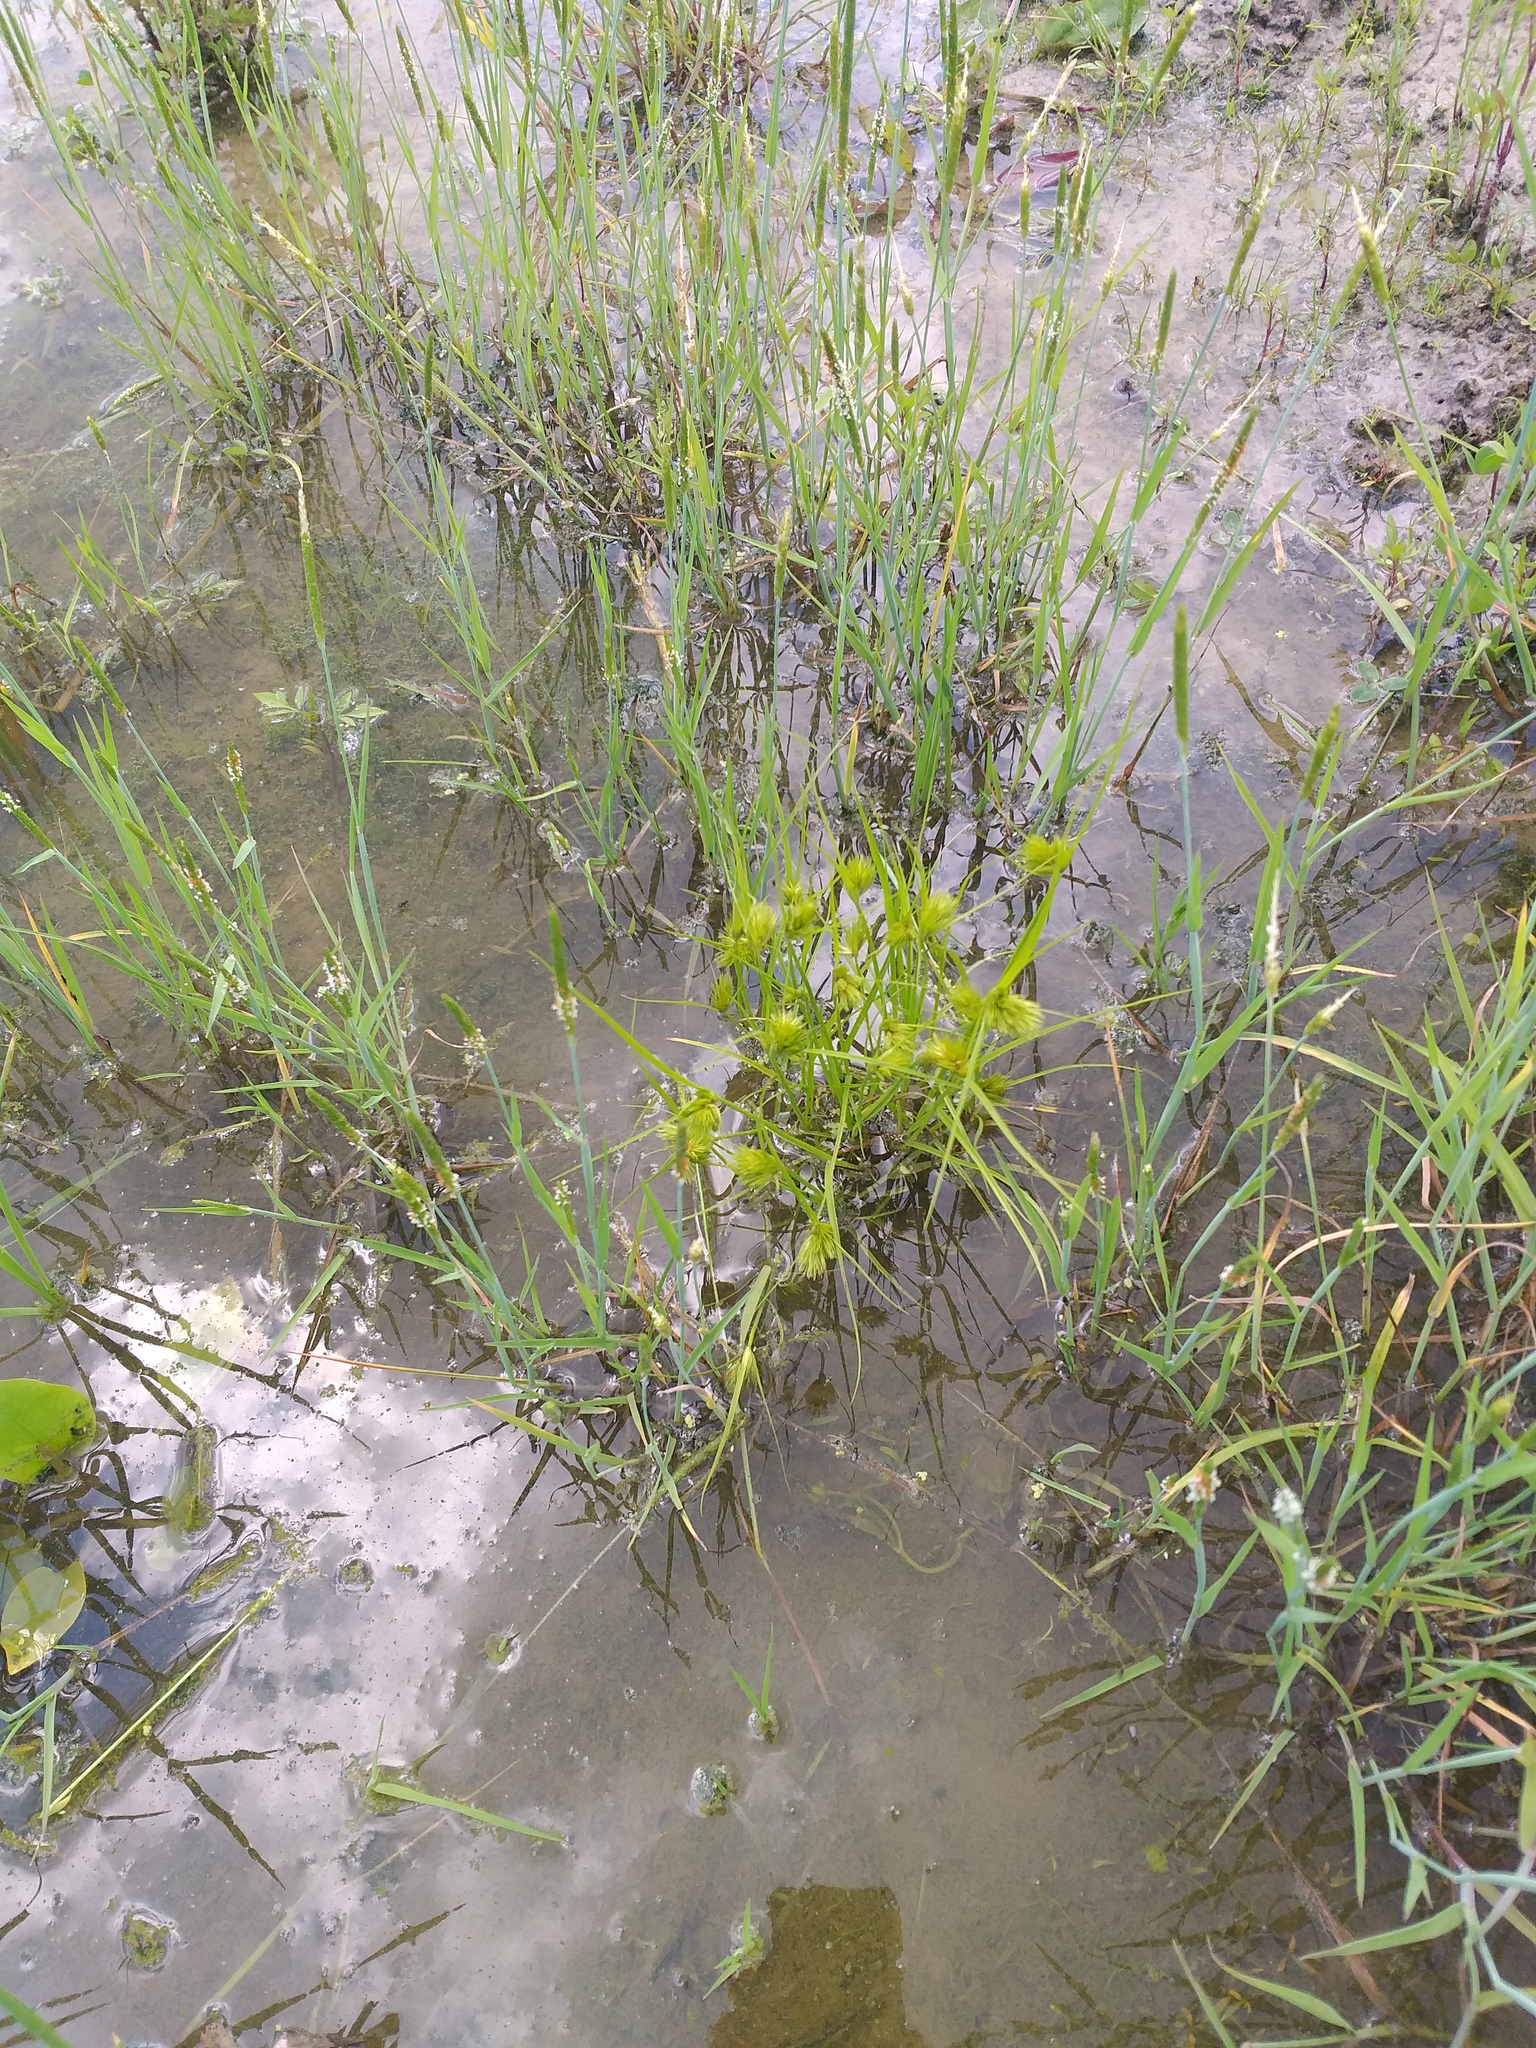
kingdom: Plantae
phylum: Tracheophyta
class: Liliopsida
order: Poales
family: Cyperaceae
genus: Carex
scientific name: Carex bohemica
